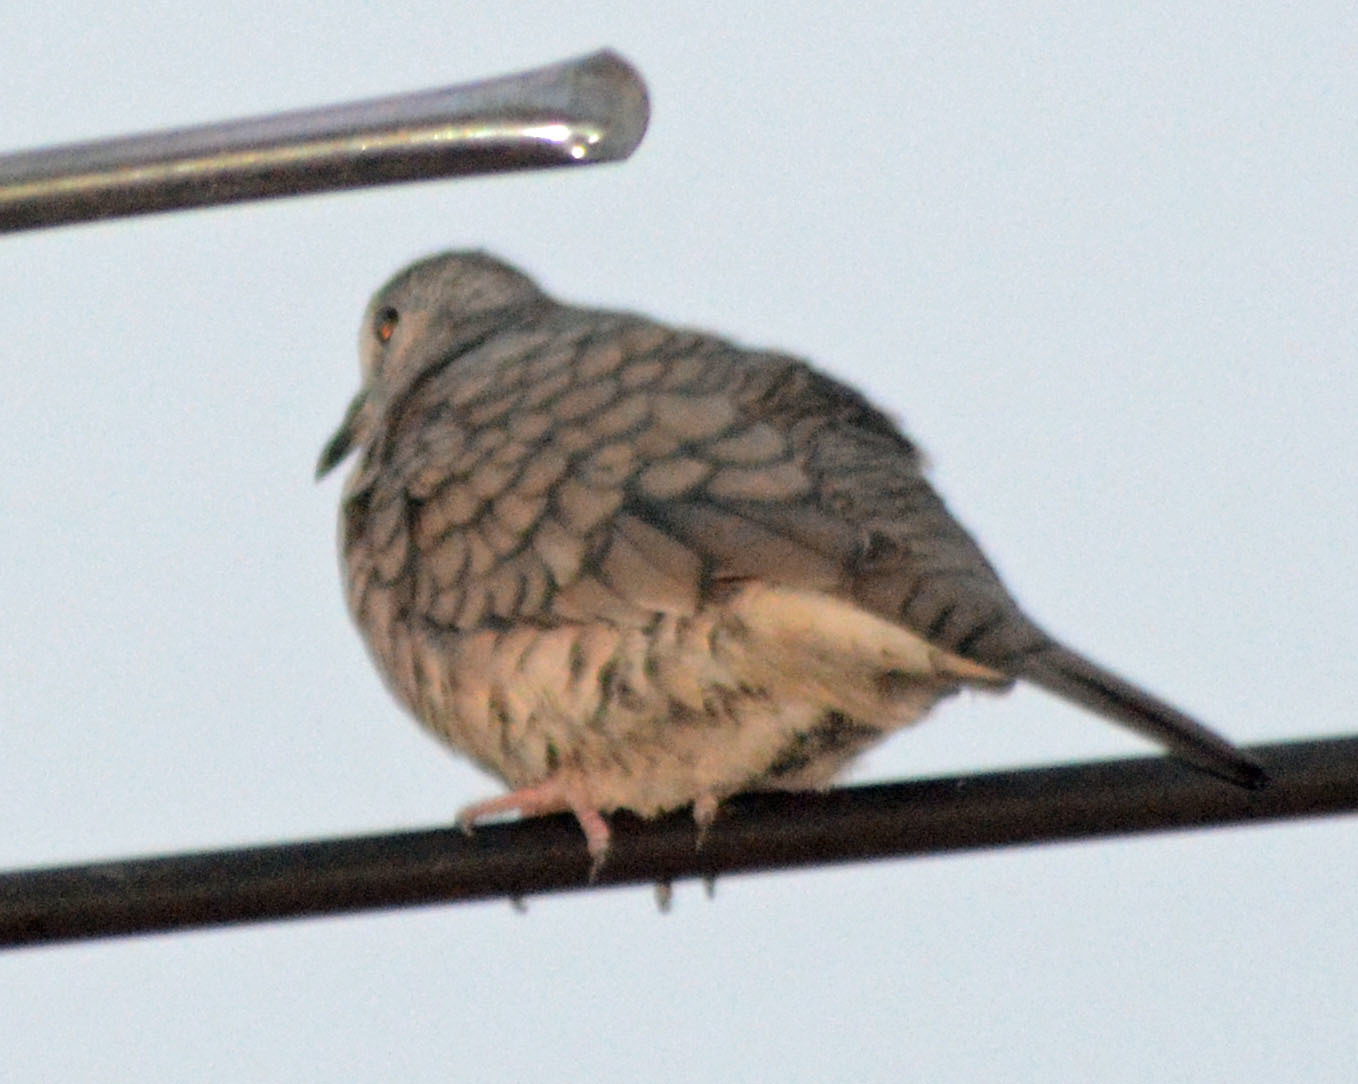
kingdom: Animalia
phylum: Chordata
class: Aves
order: Columbiformes
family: Columbidae
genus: Columbina
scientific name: Columbina inca
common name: Inca dove
